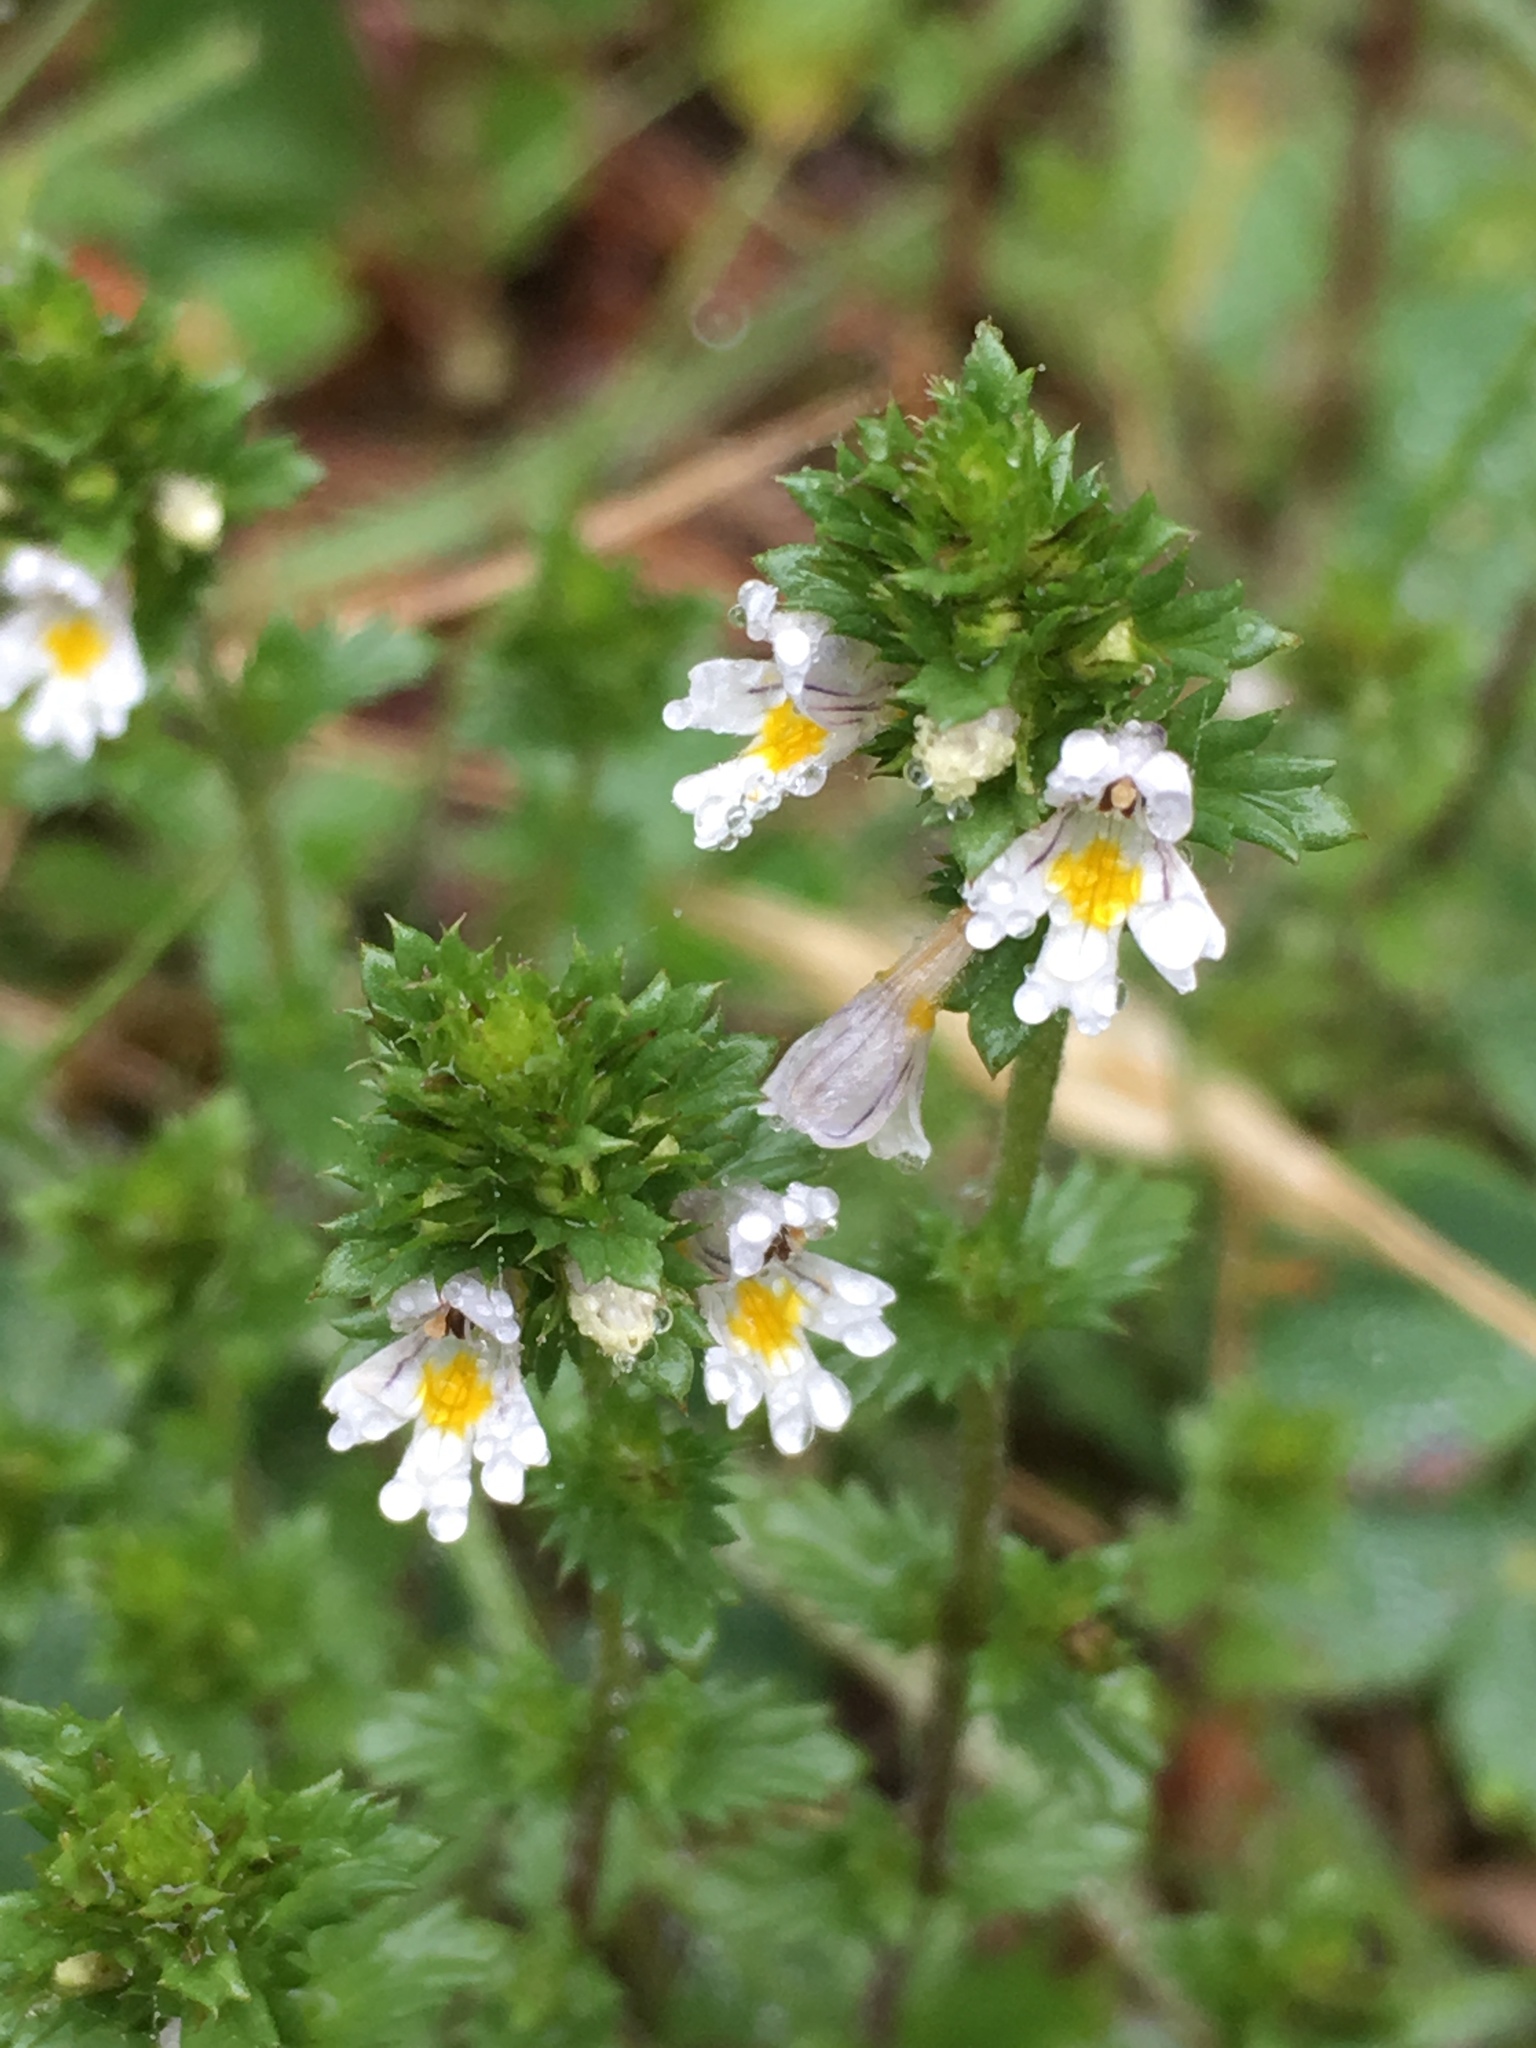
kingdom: Plantae
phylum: Tracheophyta
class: Magnoliopsida
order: Lamiales
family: Orobanchaceae
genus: Euphrasia
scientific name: Euphrasia nemorosa
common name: Common eyebright
